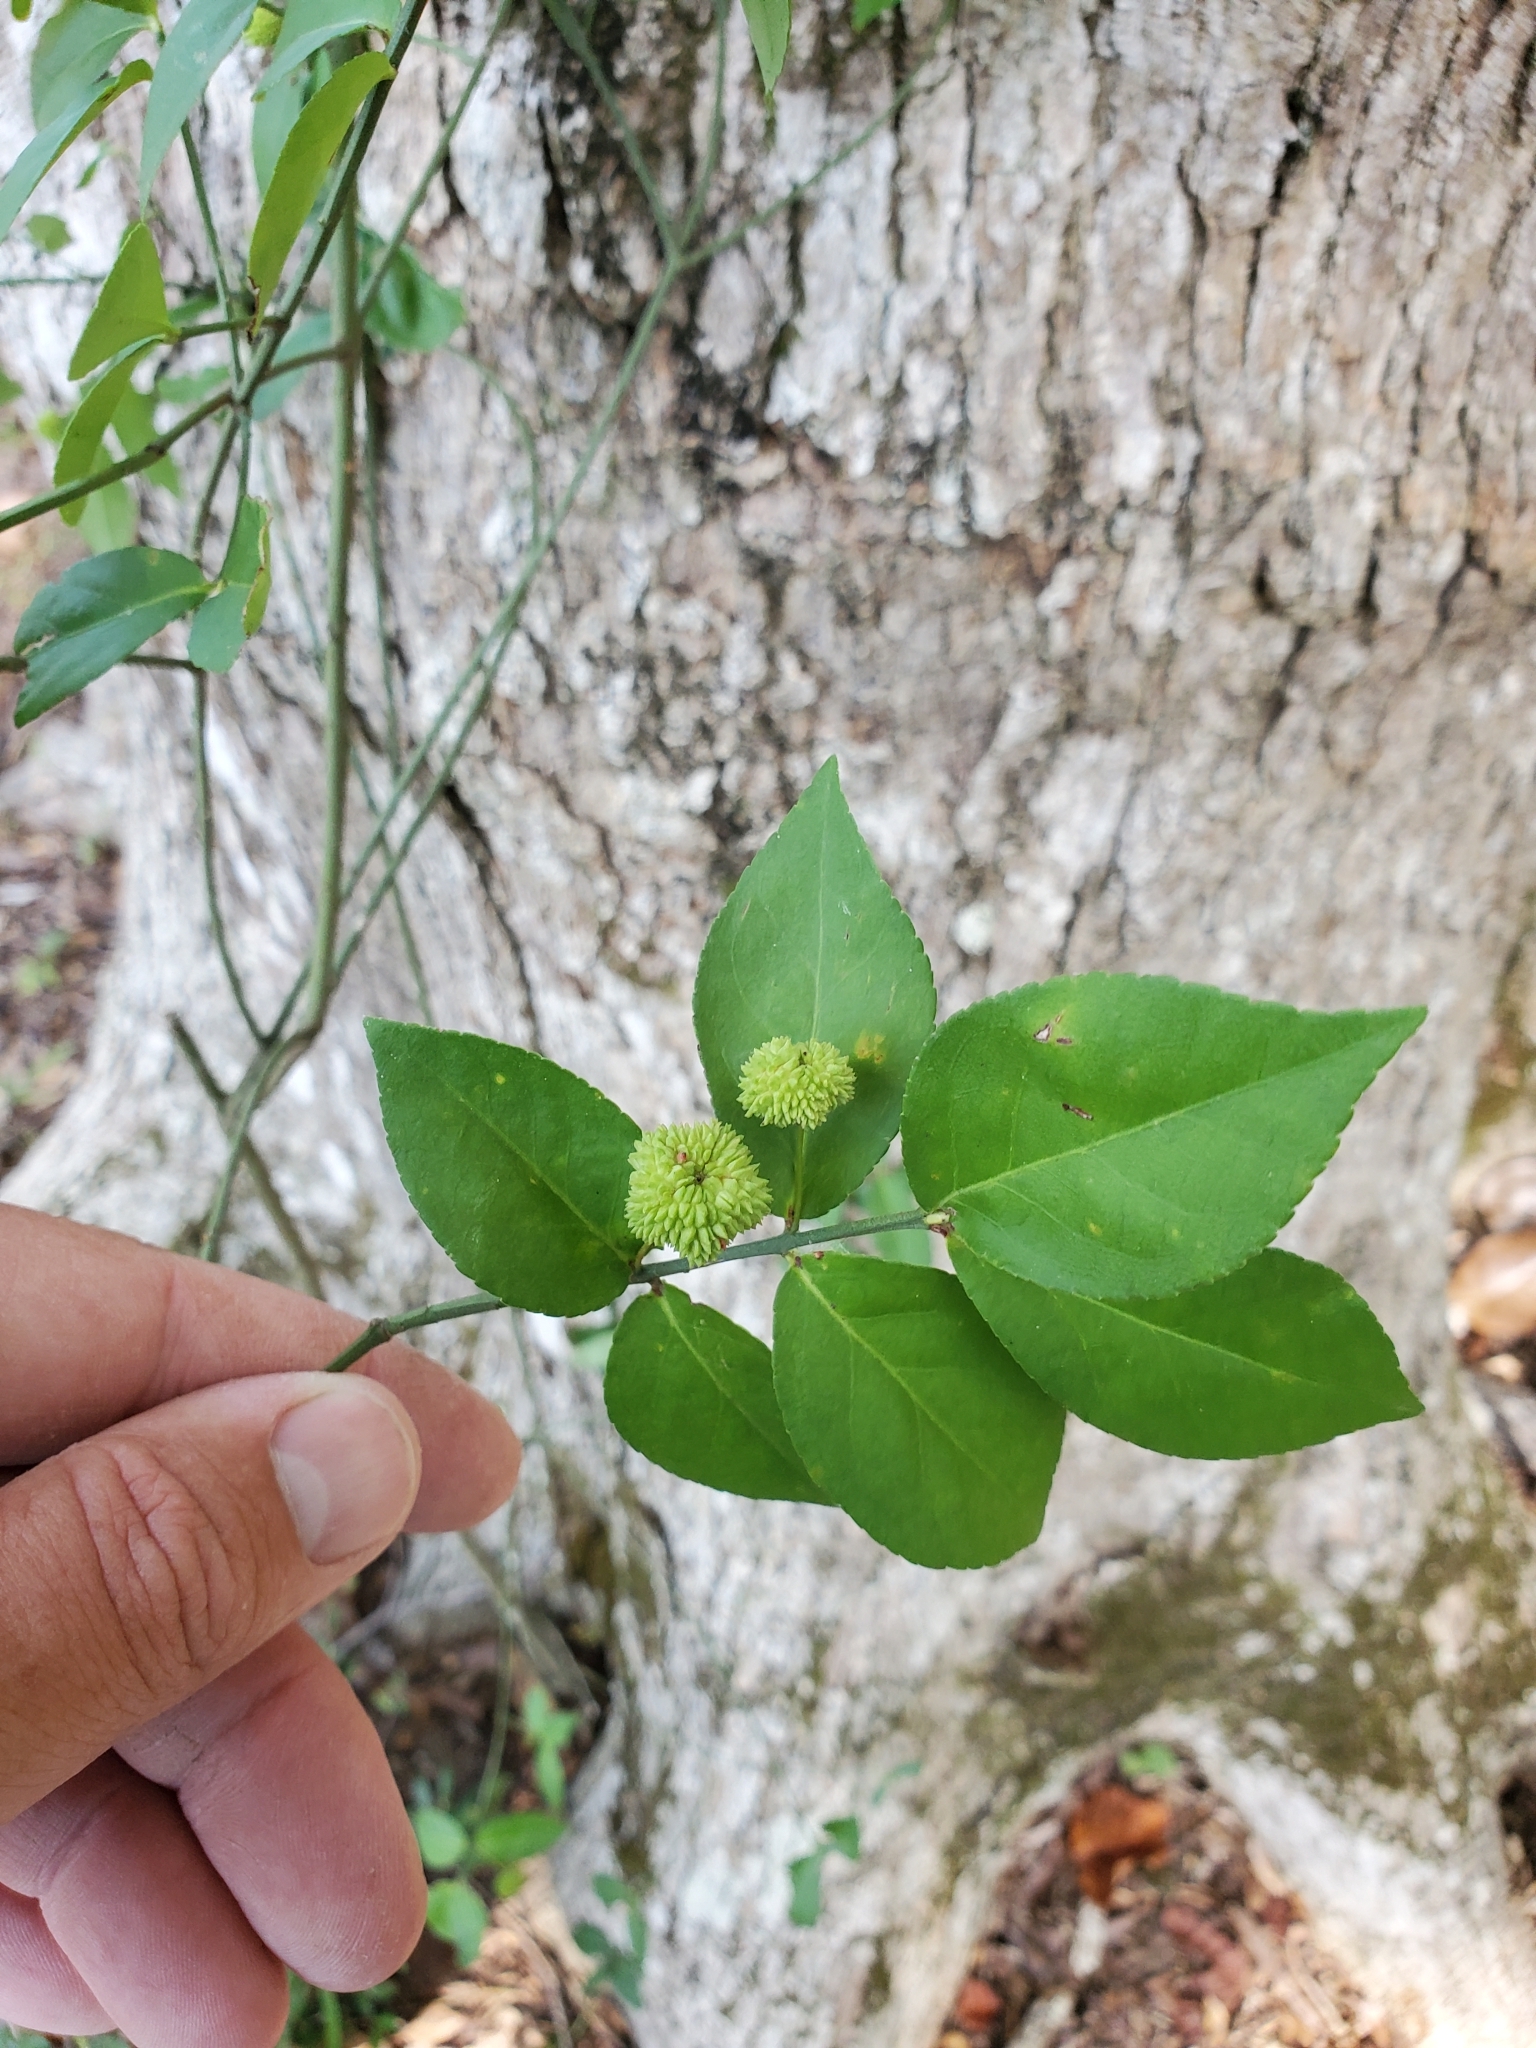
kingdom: Plantae
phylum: Tracheophyta
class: Magnoliopsida
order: Celastrales
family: Celastraceae
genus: Euonymus
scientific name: Euonymus americanus
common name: Bursting-heart
